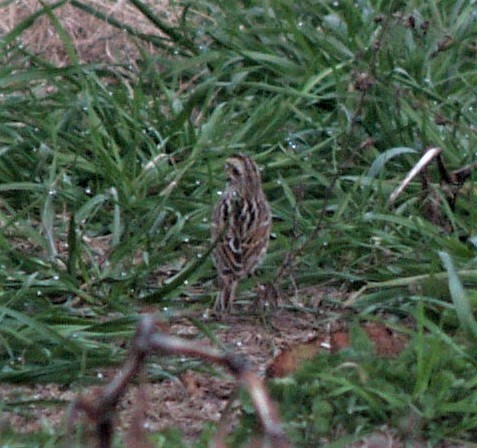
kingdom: Animalia
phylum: Chordata
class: Aves
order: Passeriformes
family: Passerellidae
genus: Passerculus
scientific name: Passerculus sandwichensis
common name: Savannah sparrow
